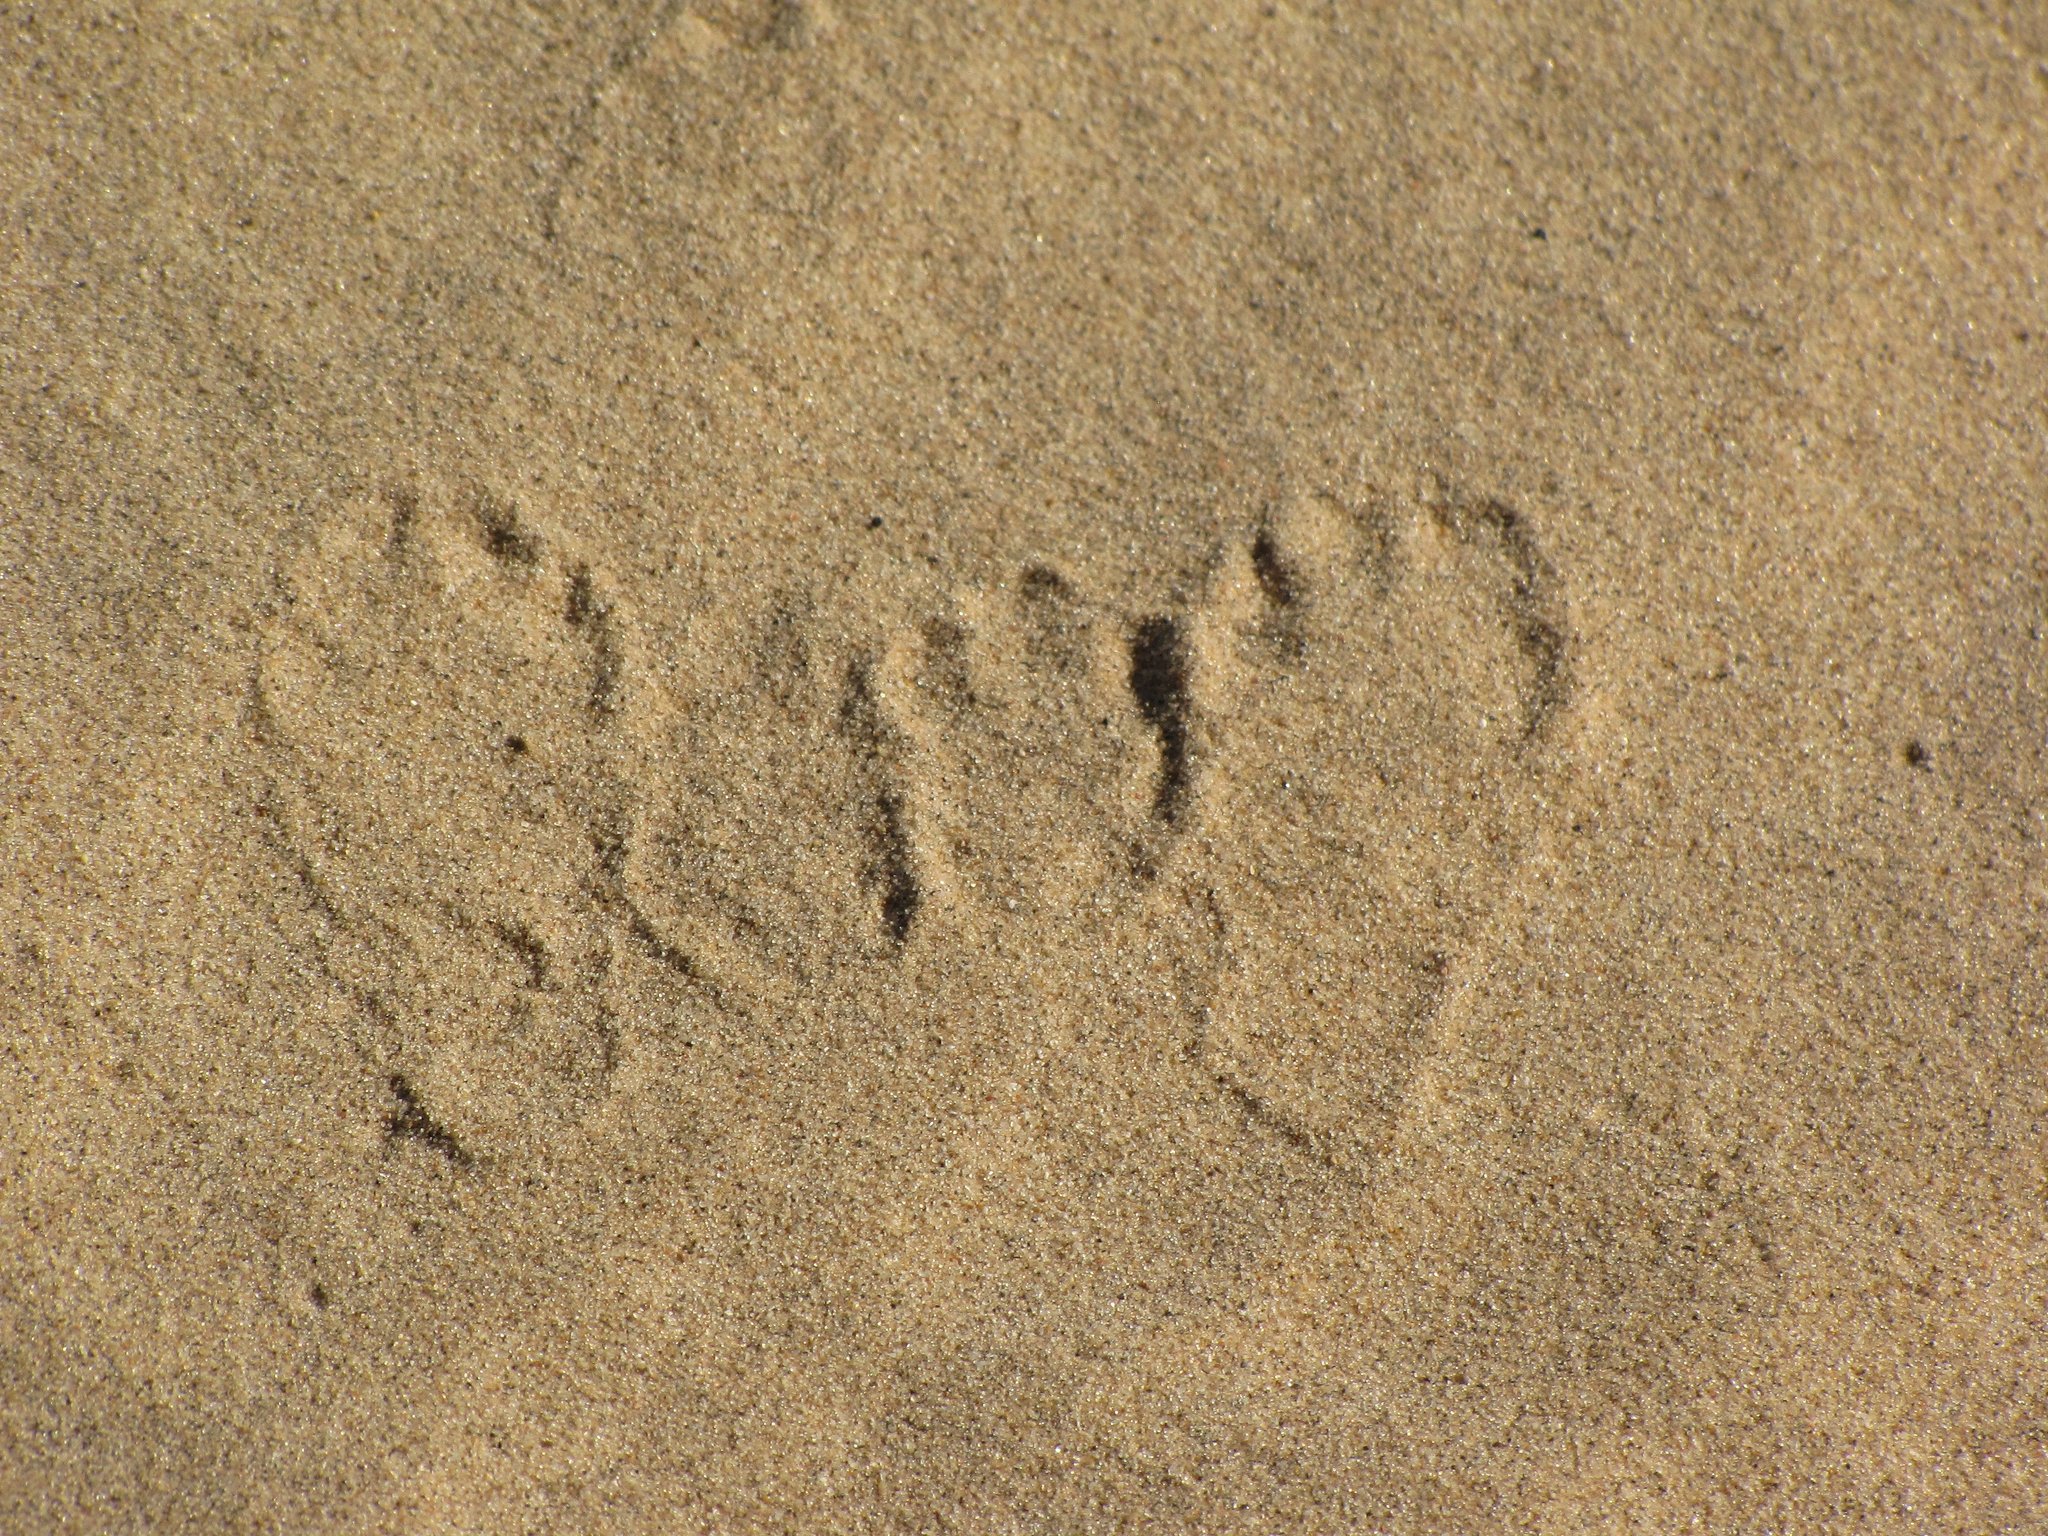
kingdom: Animalia
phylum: Chordata
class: Mammalia
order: Lagomorpha
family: Leporidae
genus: Lepus
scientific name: Lepus californicus
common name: Black-tailed jackrabbit
